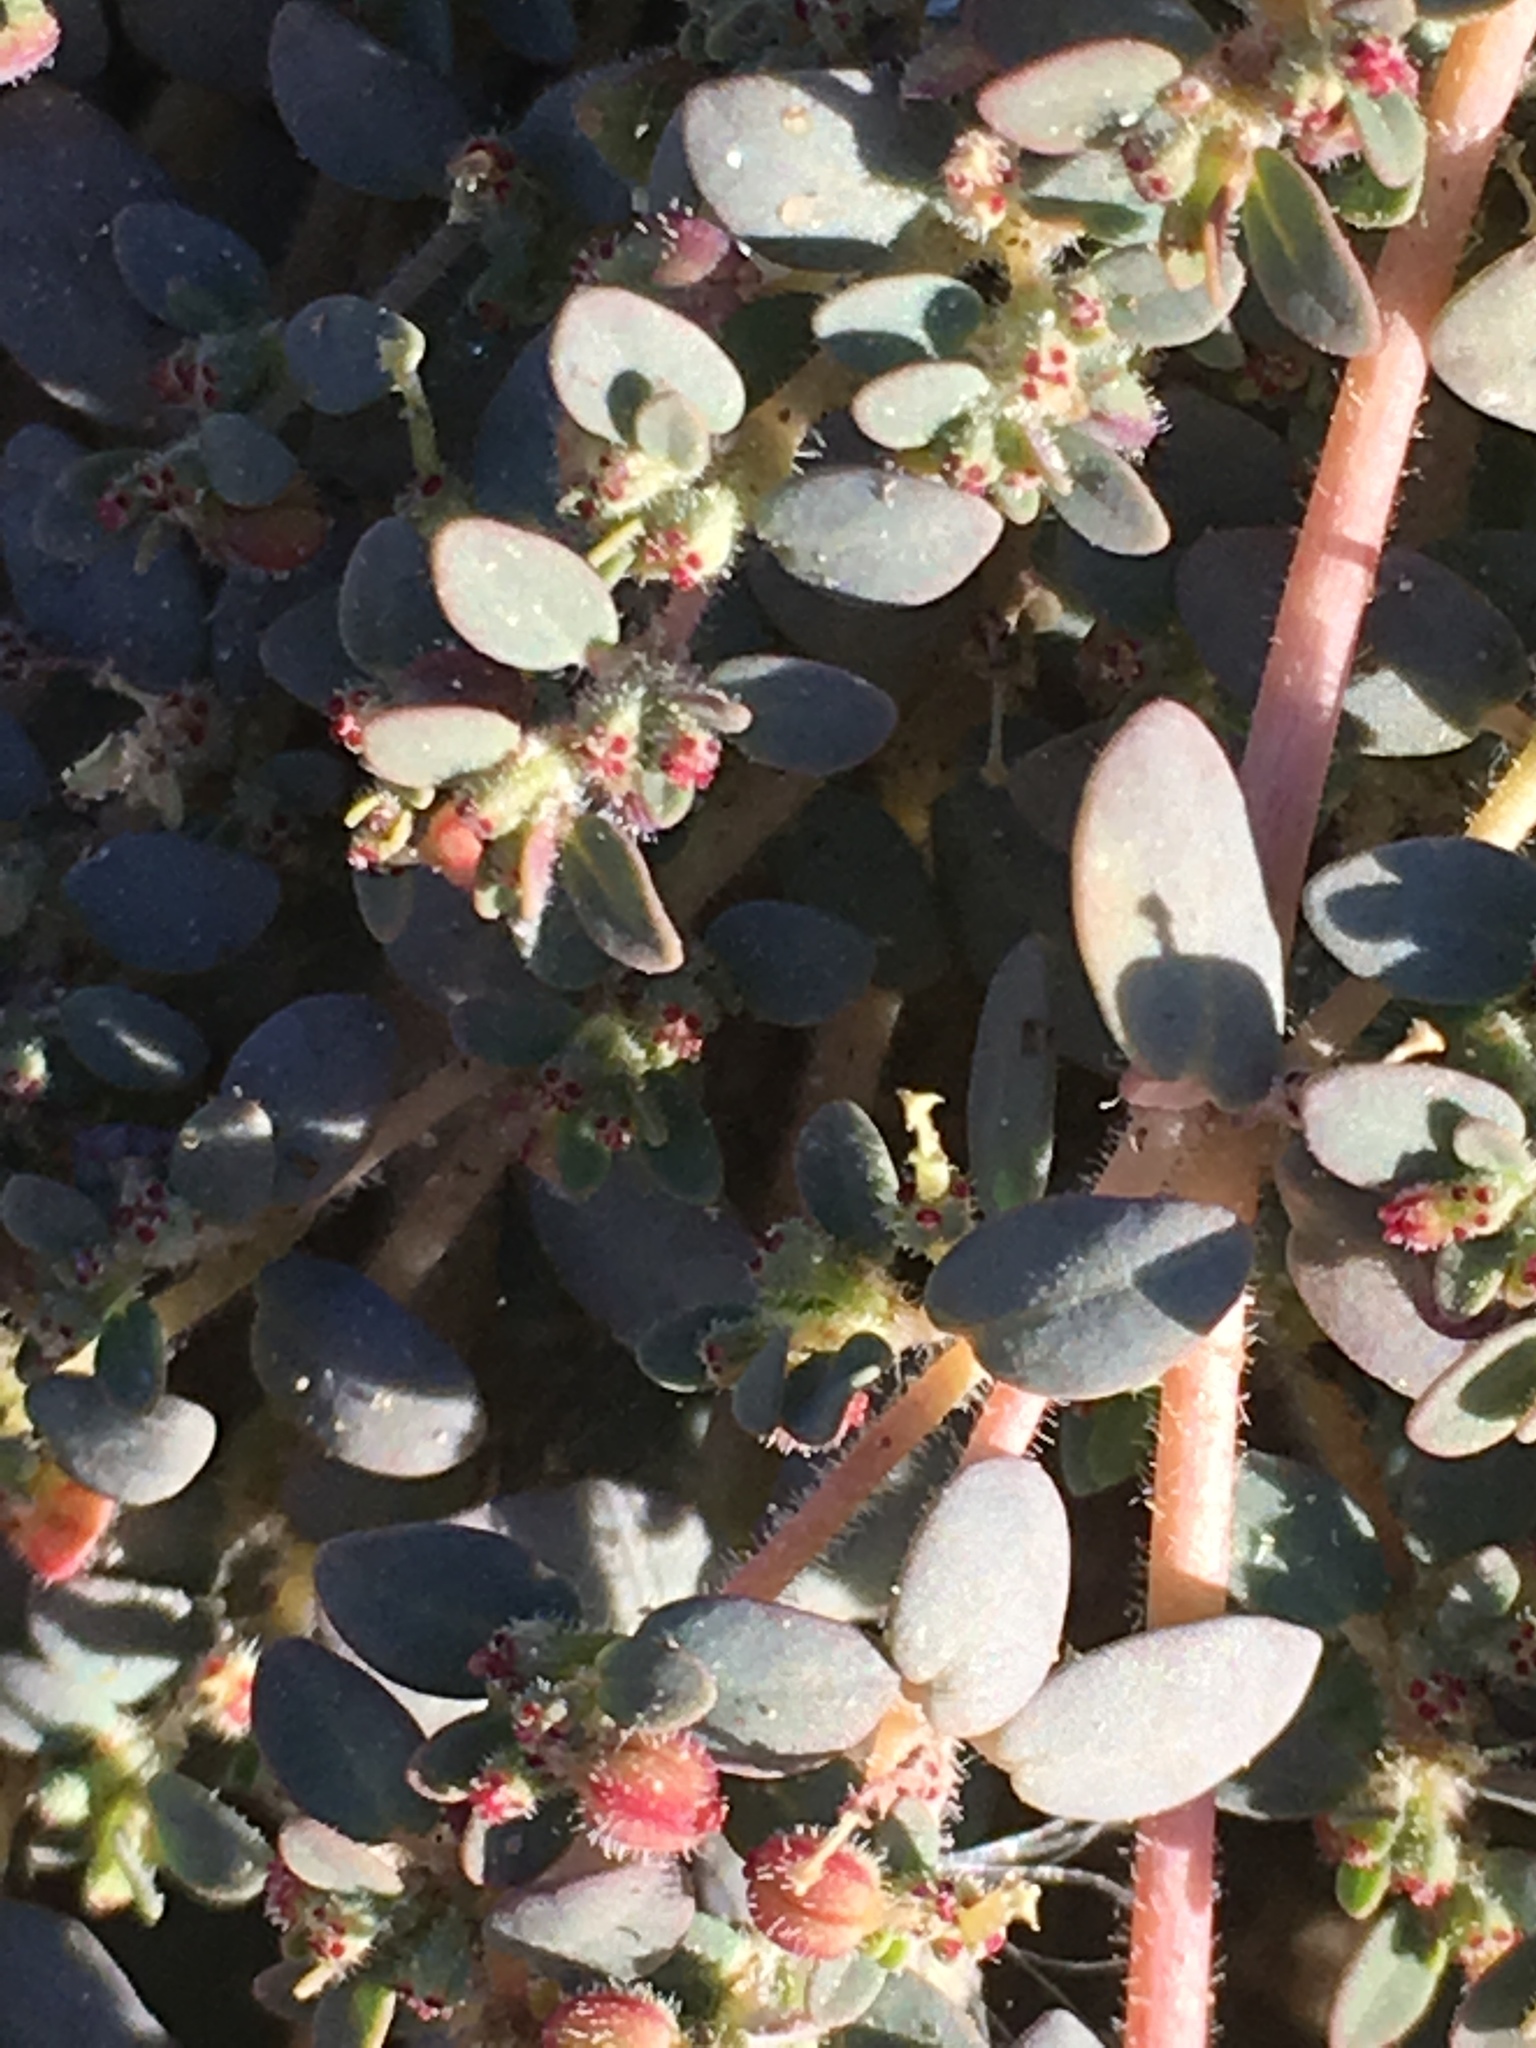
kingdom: Plantae
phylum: Tracheophyta
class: Magnoliopsida
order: Malpighiales
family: Euphorbiaceae
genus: Euphorbia
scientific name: Euphorbia micromera
